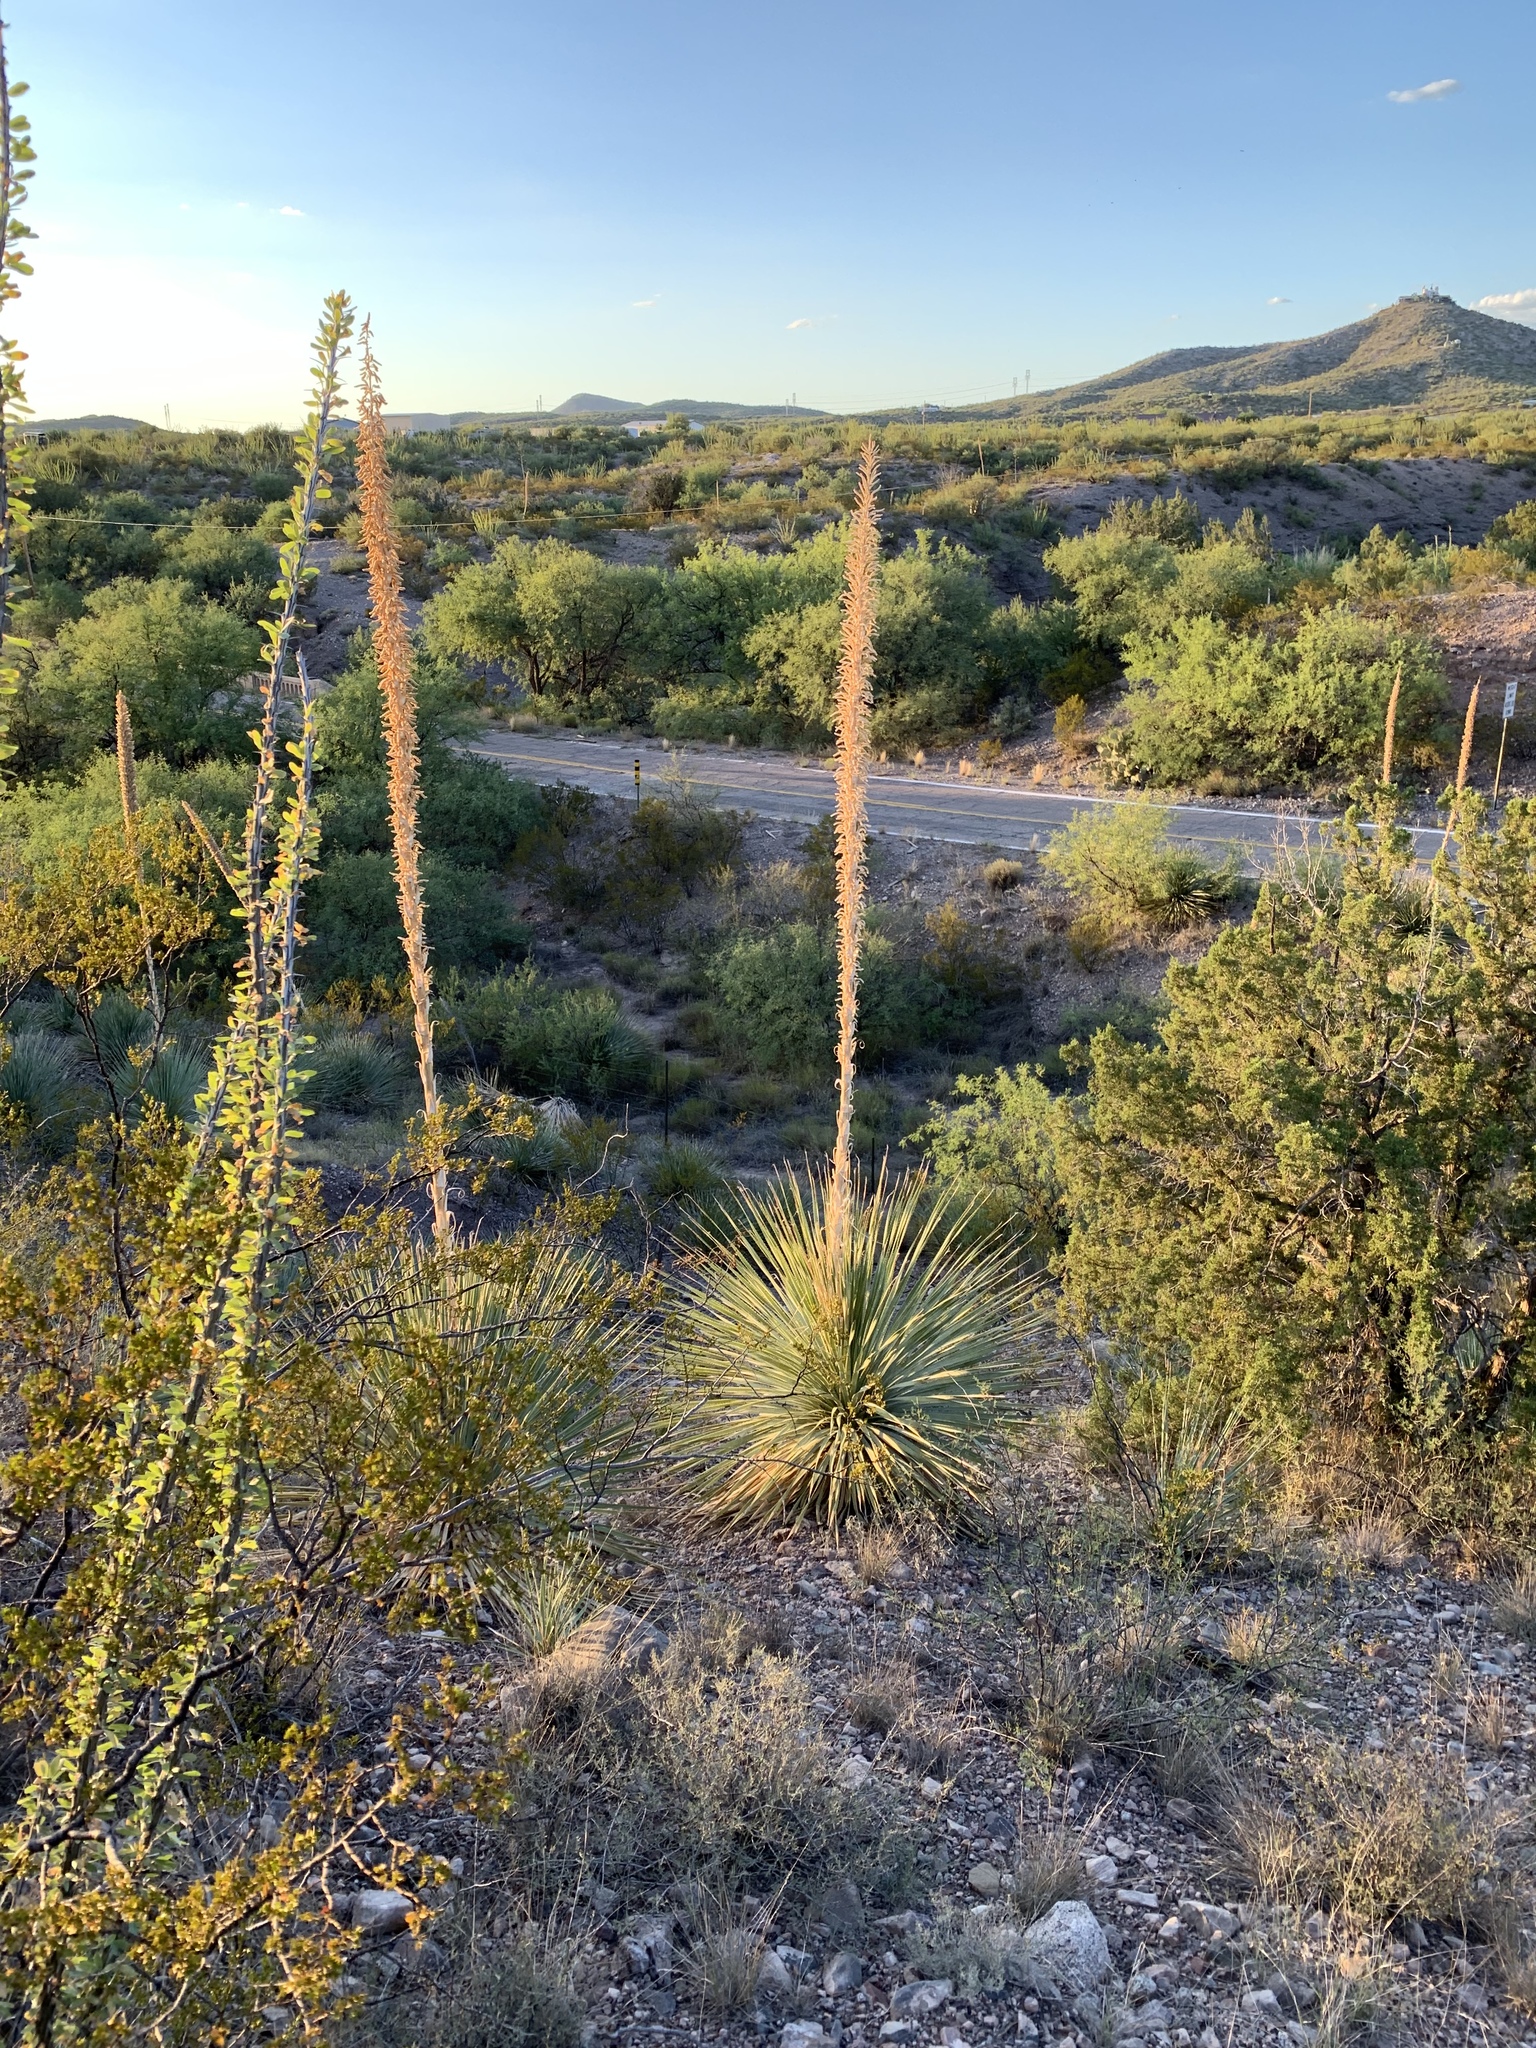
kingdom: Plantae
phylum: Tracheophyta
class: Liliopsida
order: Asparagales
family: Asparagaceae
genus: Dasylirion
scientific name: Dasylirion wheeleri
